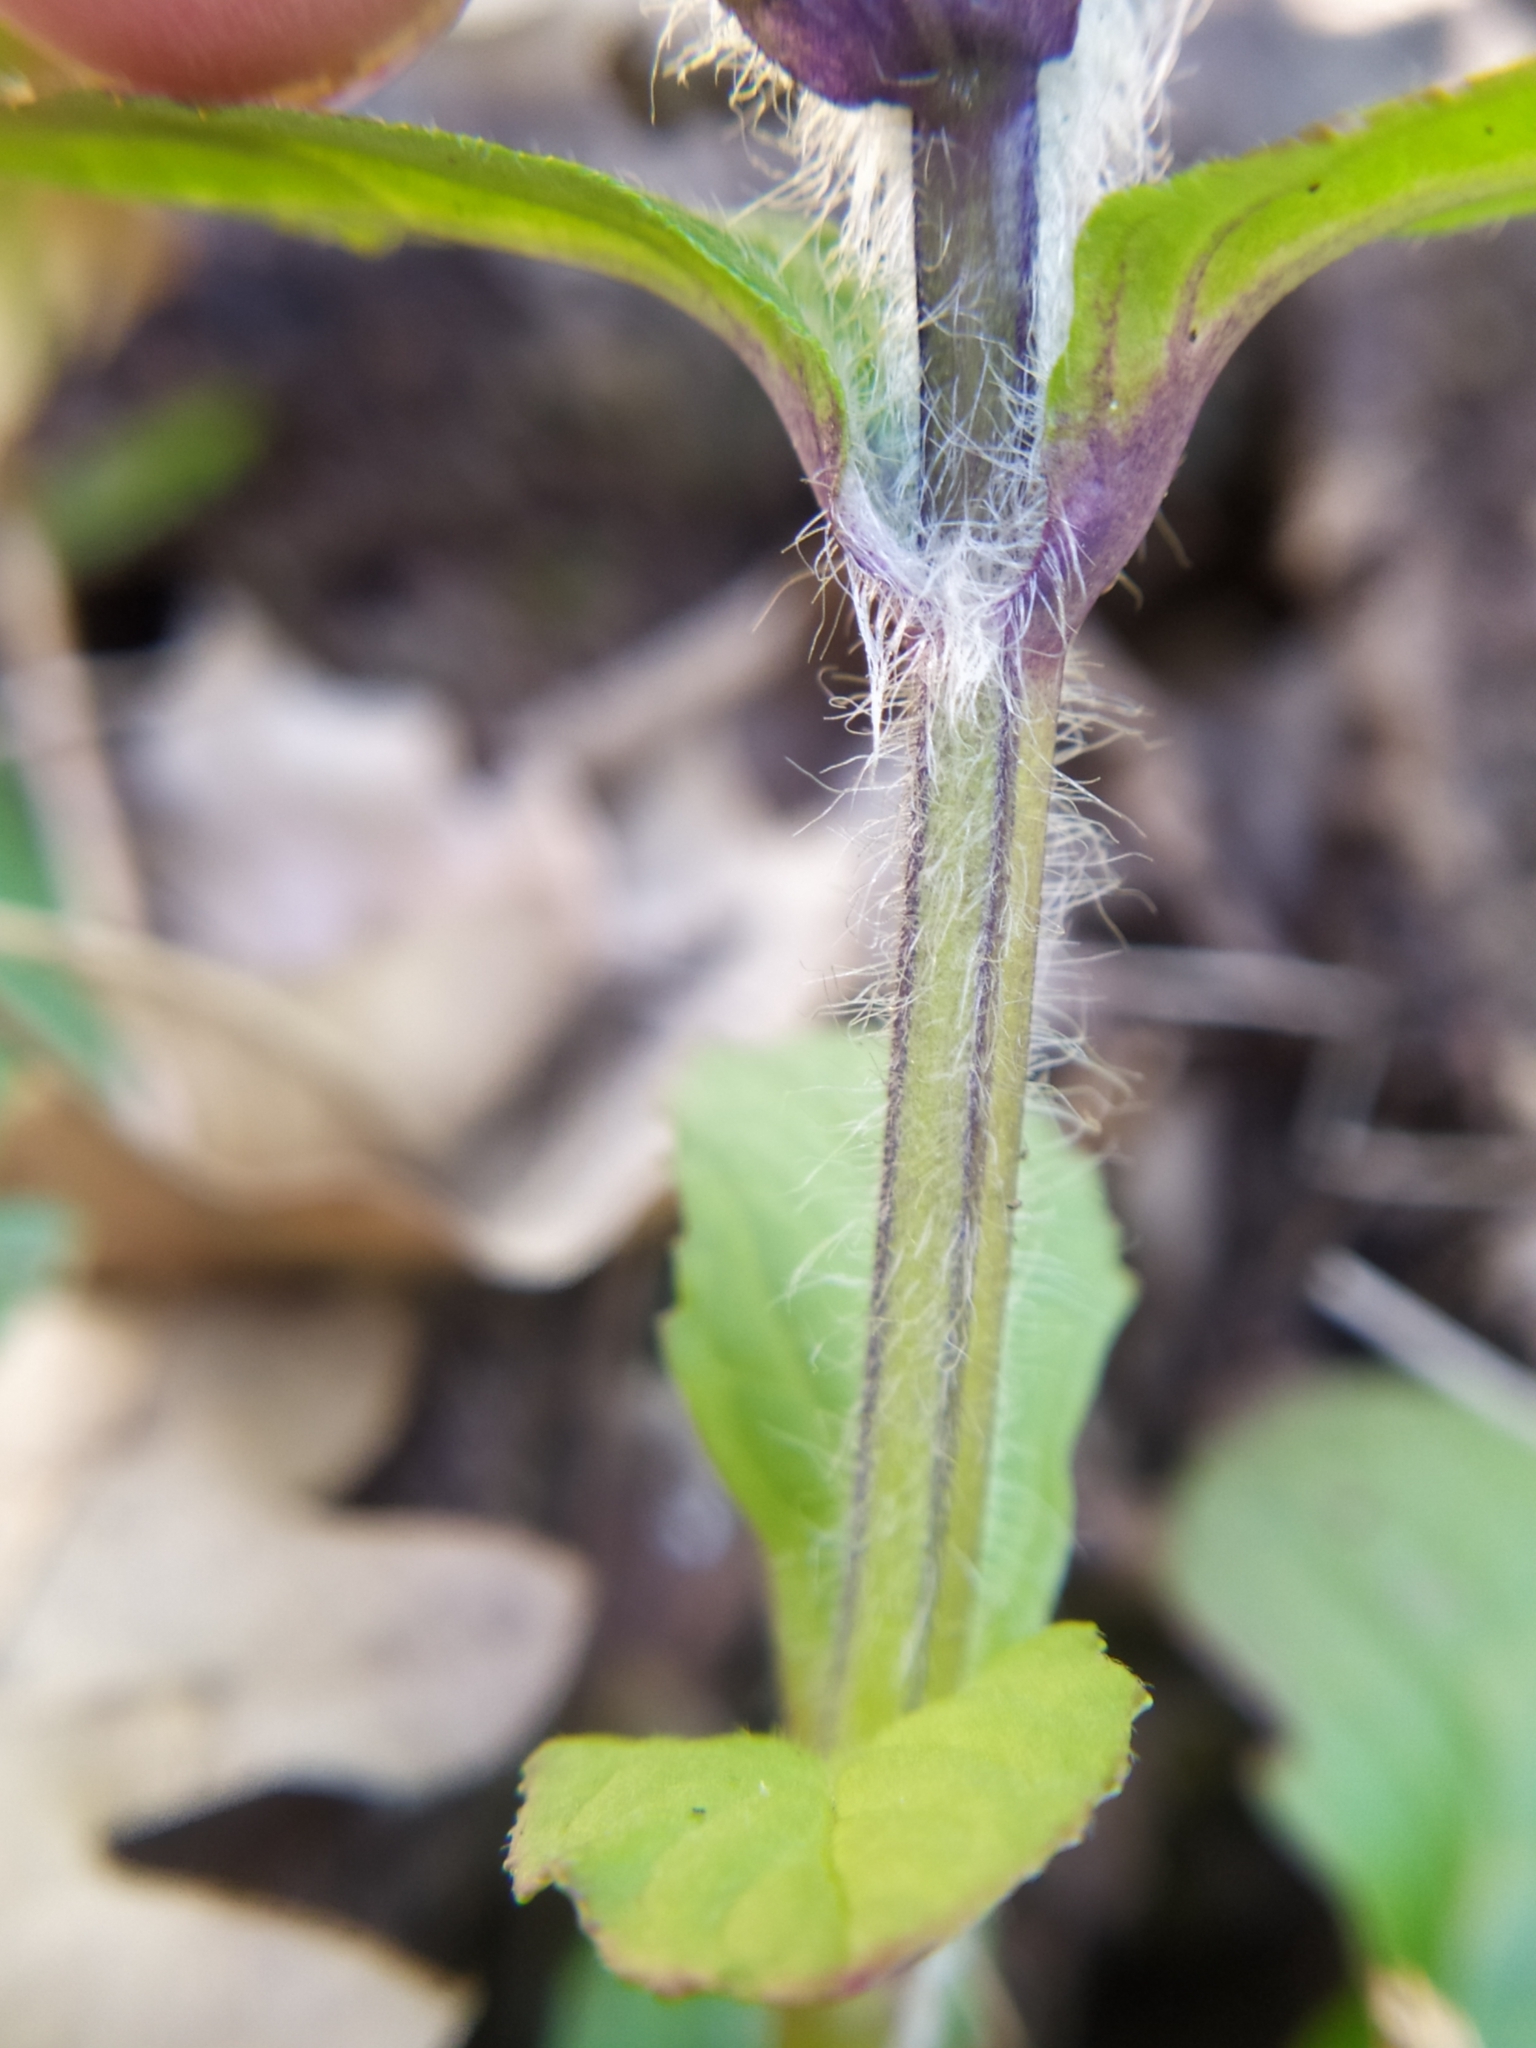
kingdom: Plantae
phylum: Tracheophyta
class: Magnoliopsida
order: Lamiales
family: Lamiaceae
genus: Ajuga
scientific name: Ajuga reptans
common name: Bugle
